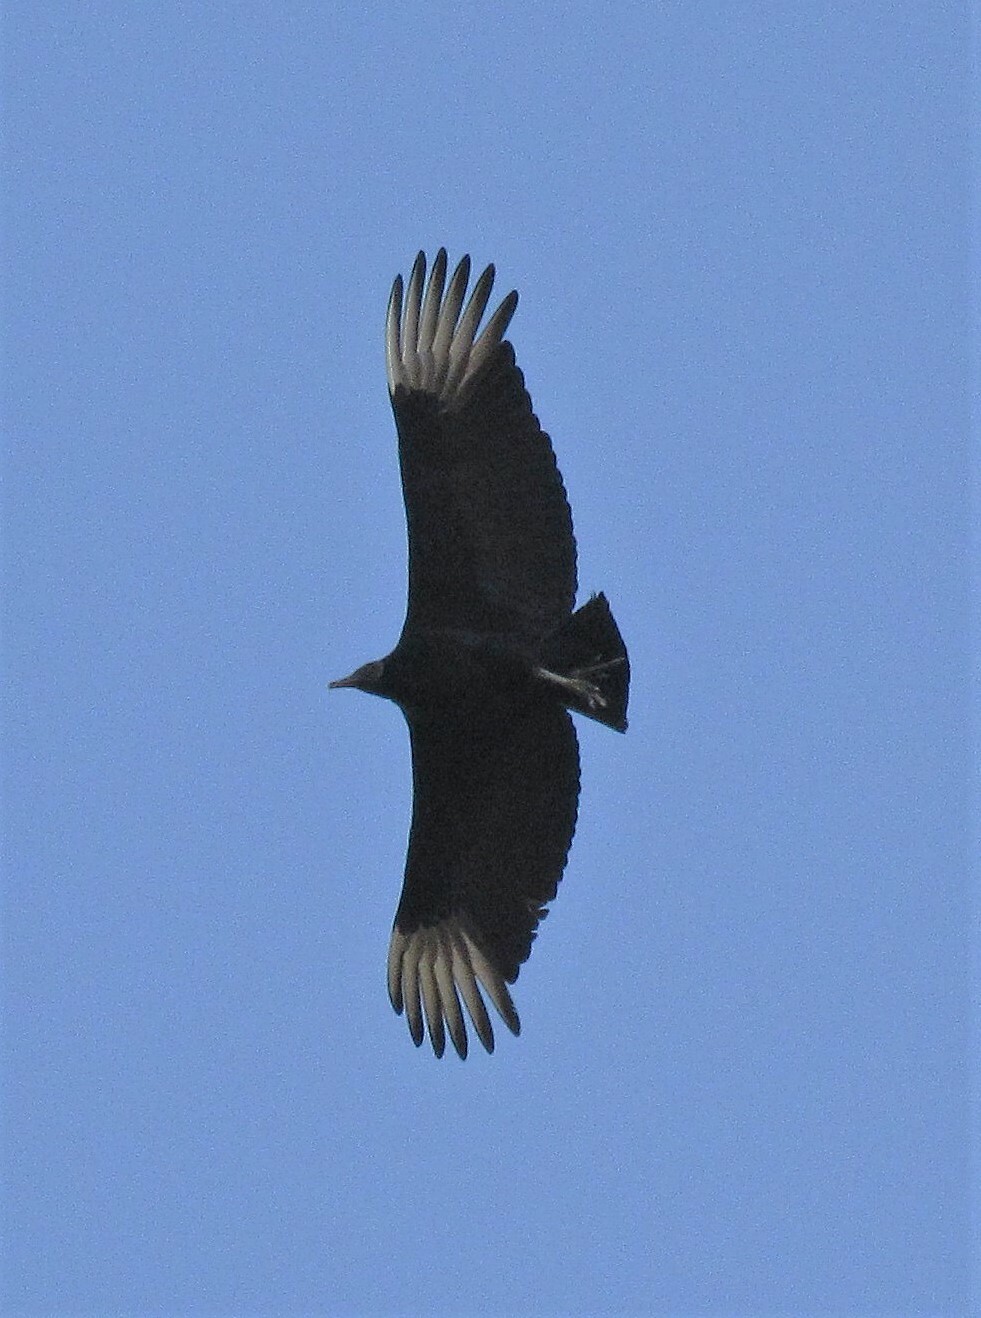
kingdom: Animalia
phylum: Chordata
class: Aves
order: Accipitriformes
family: Cathartidae
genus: Coragyps
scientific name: Coragyps atratus
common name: Black vulture
